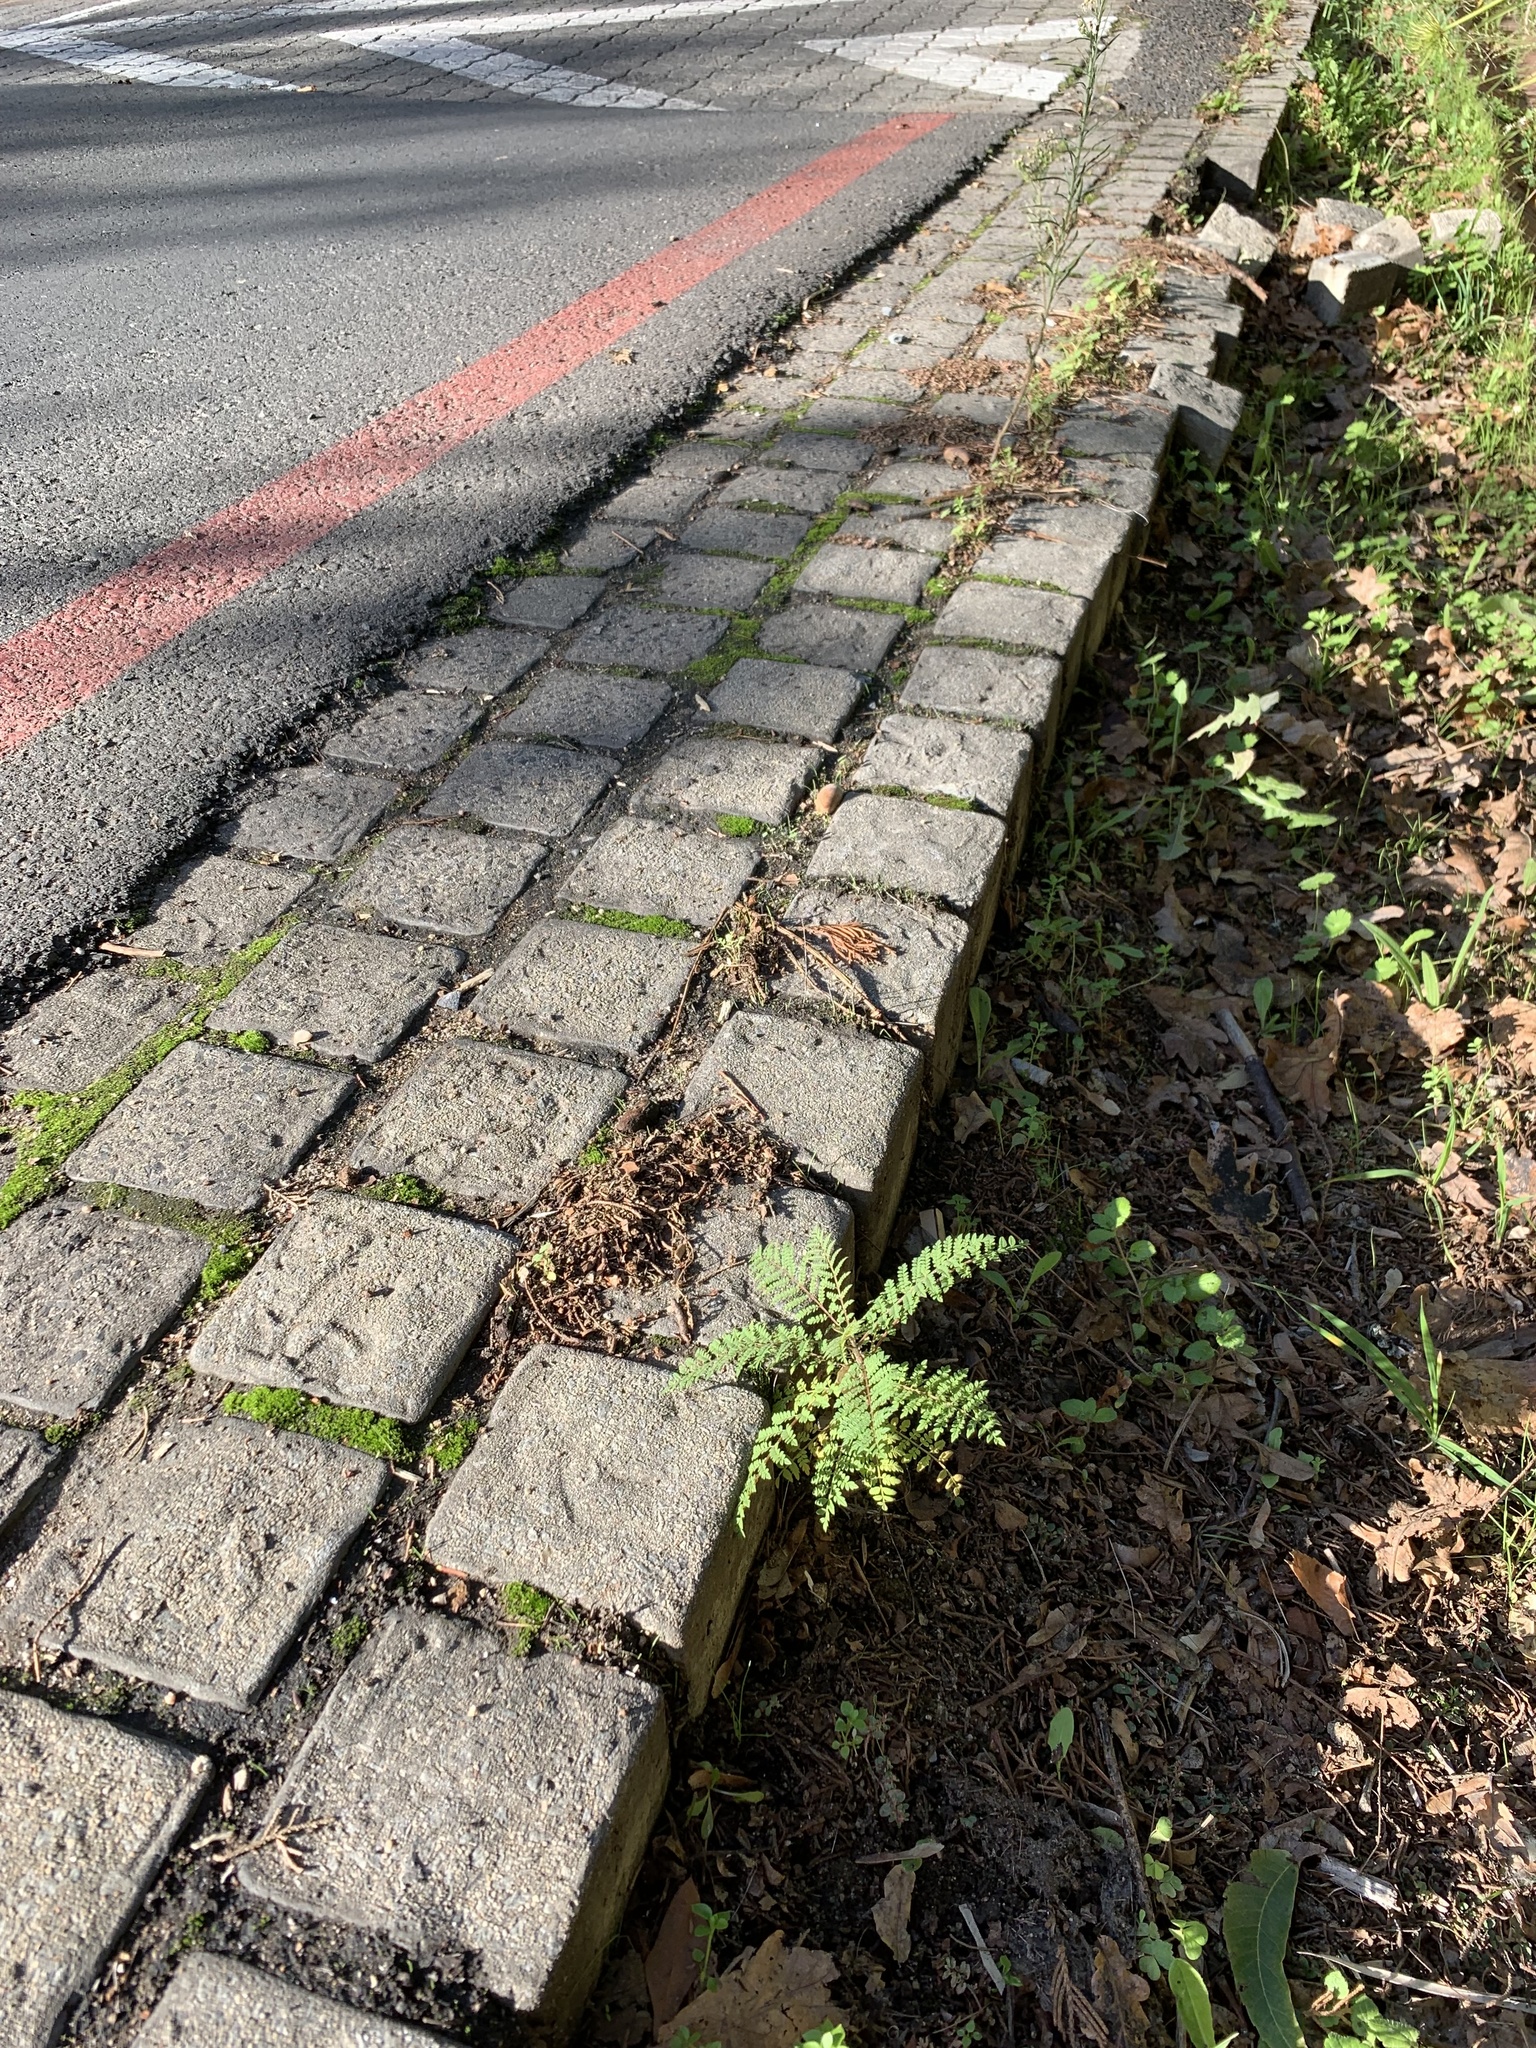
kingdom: Plantae
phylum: Tracheophyta
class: Magnoliopsida
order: Lamiales
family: Bignoniaceae
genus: Jacaranda
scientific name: Jacaranda mimosifolia
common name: Black poui
